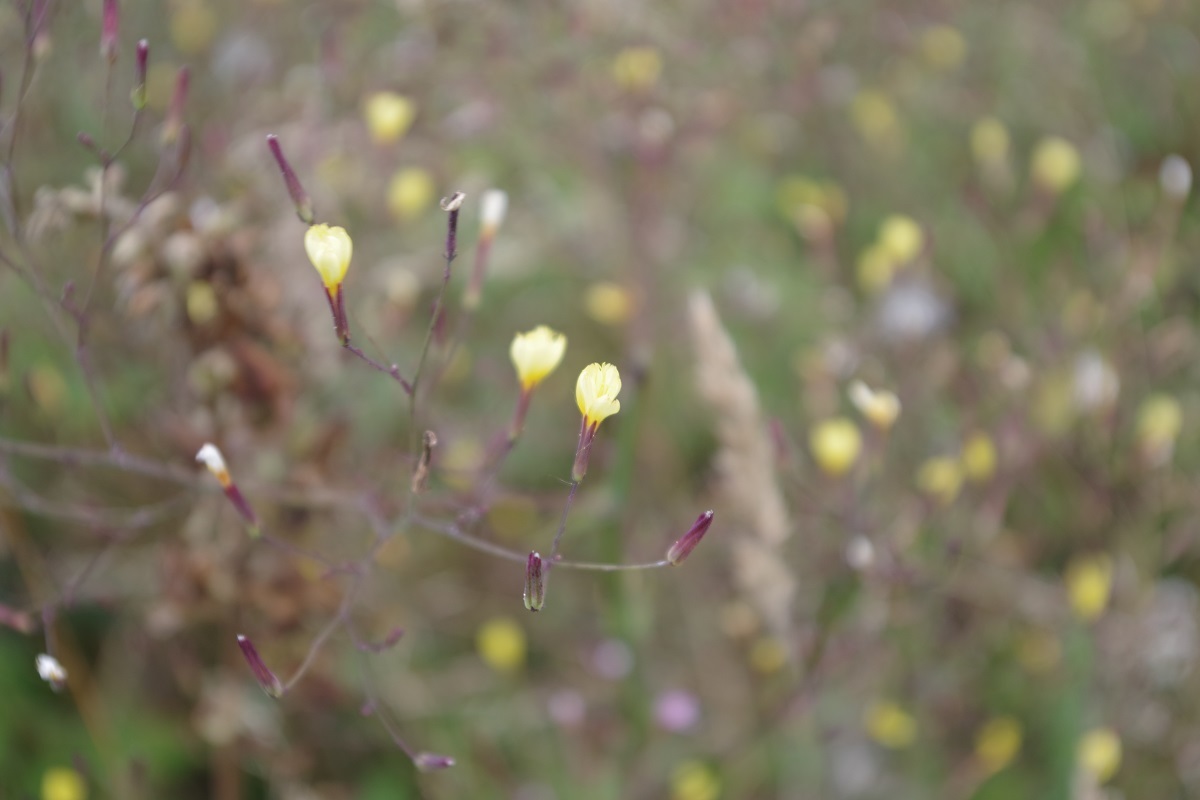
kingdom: Plantae
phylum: Tracheophyta
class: Magnoliopsida
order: Asterales
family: Asteraceae
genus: Mycelis
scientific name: Mycelis muralis
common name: Wall lettuce
